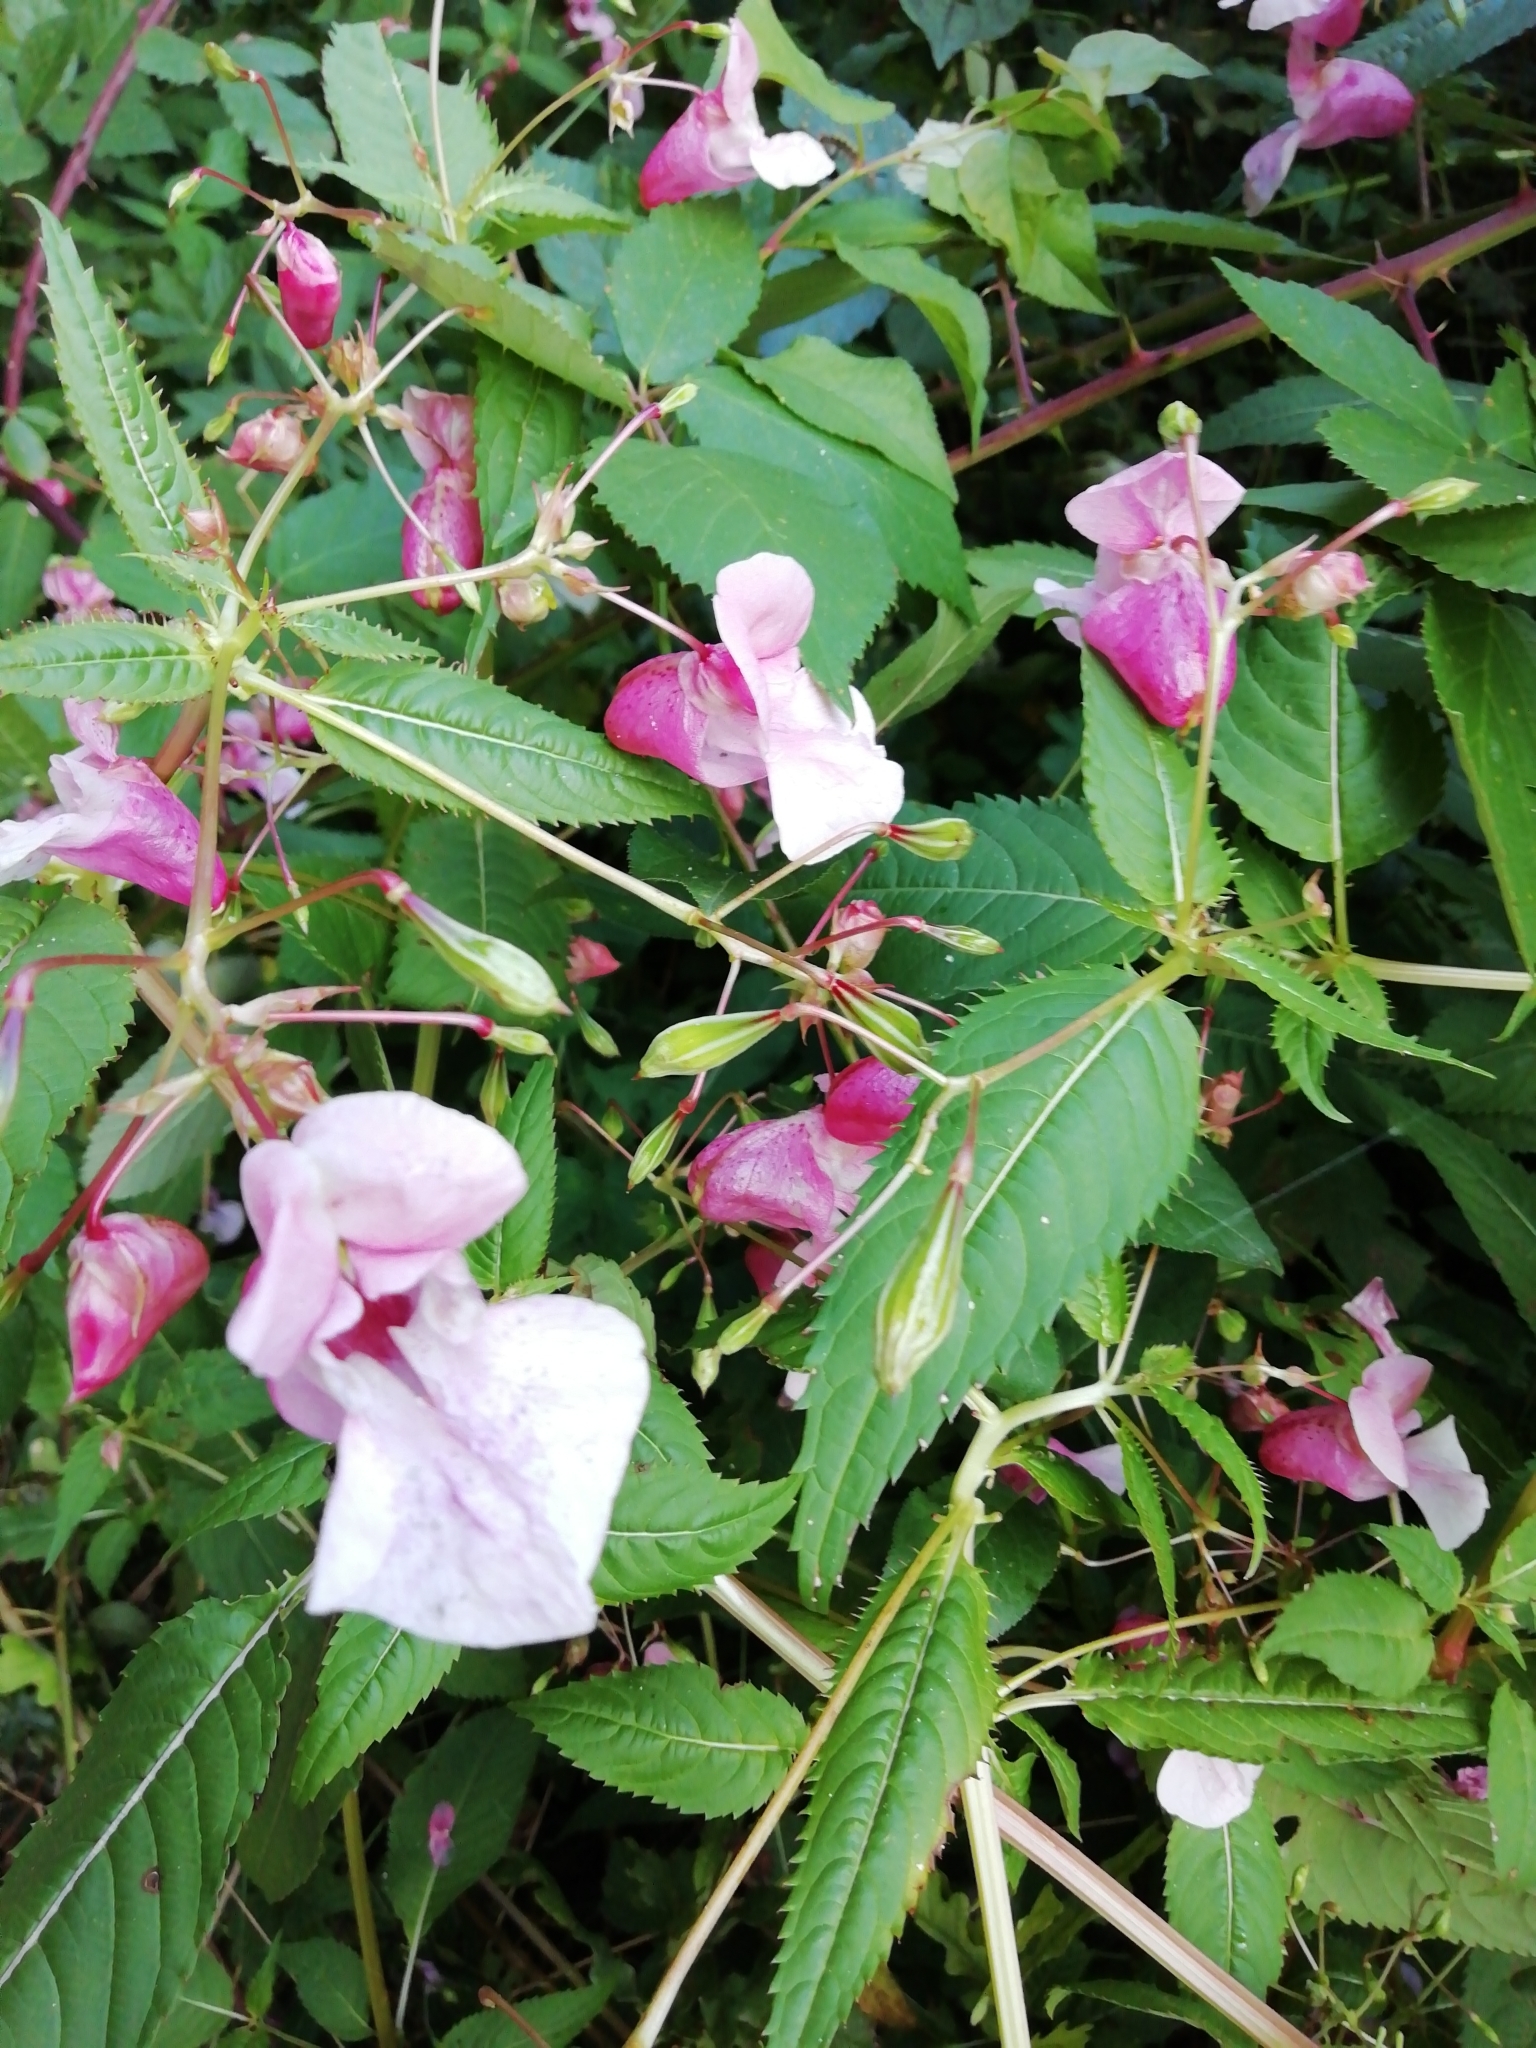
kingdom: Plantae
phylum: Tracheophyta
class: Magnoliopsida
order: Ericales
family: Balsaminaceae
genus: Impatiens
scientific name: Impatiens glandulifera
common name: Himalayan balsam
